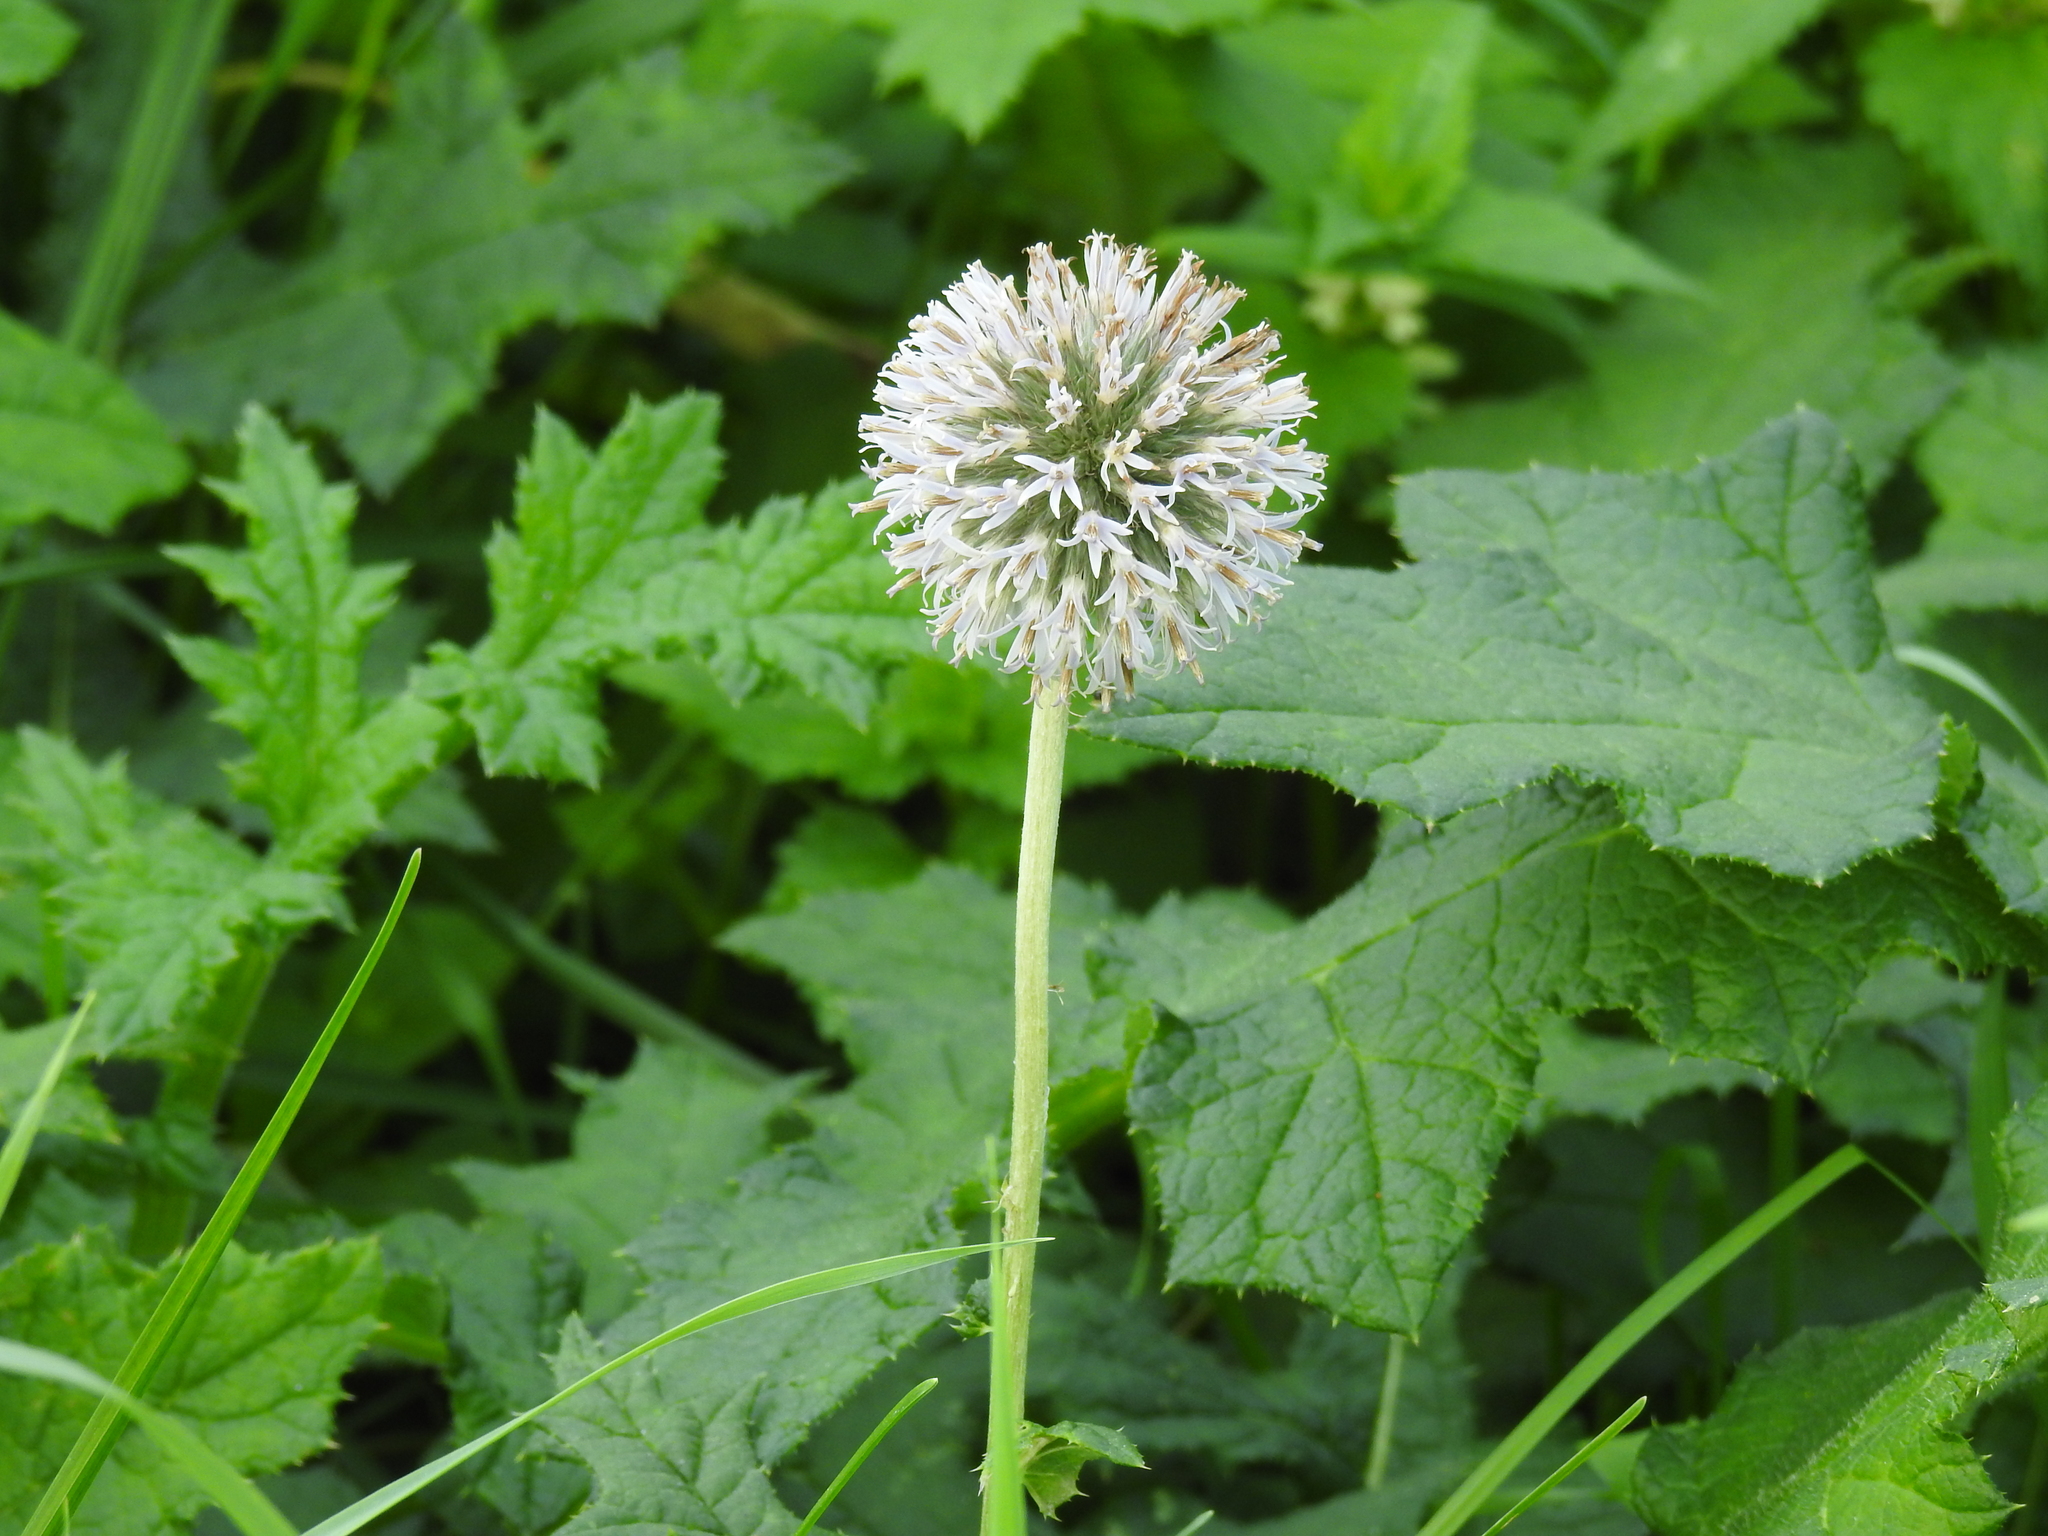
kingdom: Plantae
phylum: Tracheophyta
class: Magnoliopsida
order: Asterales
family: Asteraceae
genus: Echinops
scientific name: Echinops exaltatus
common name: Globe-thistle
